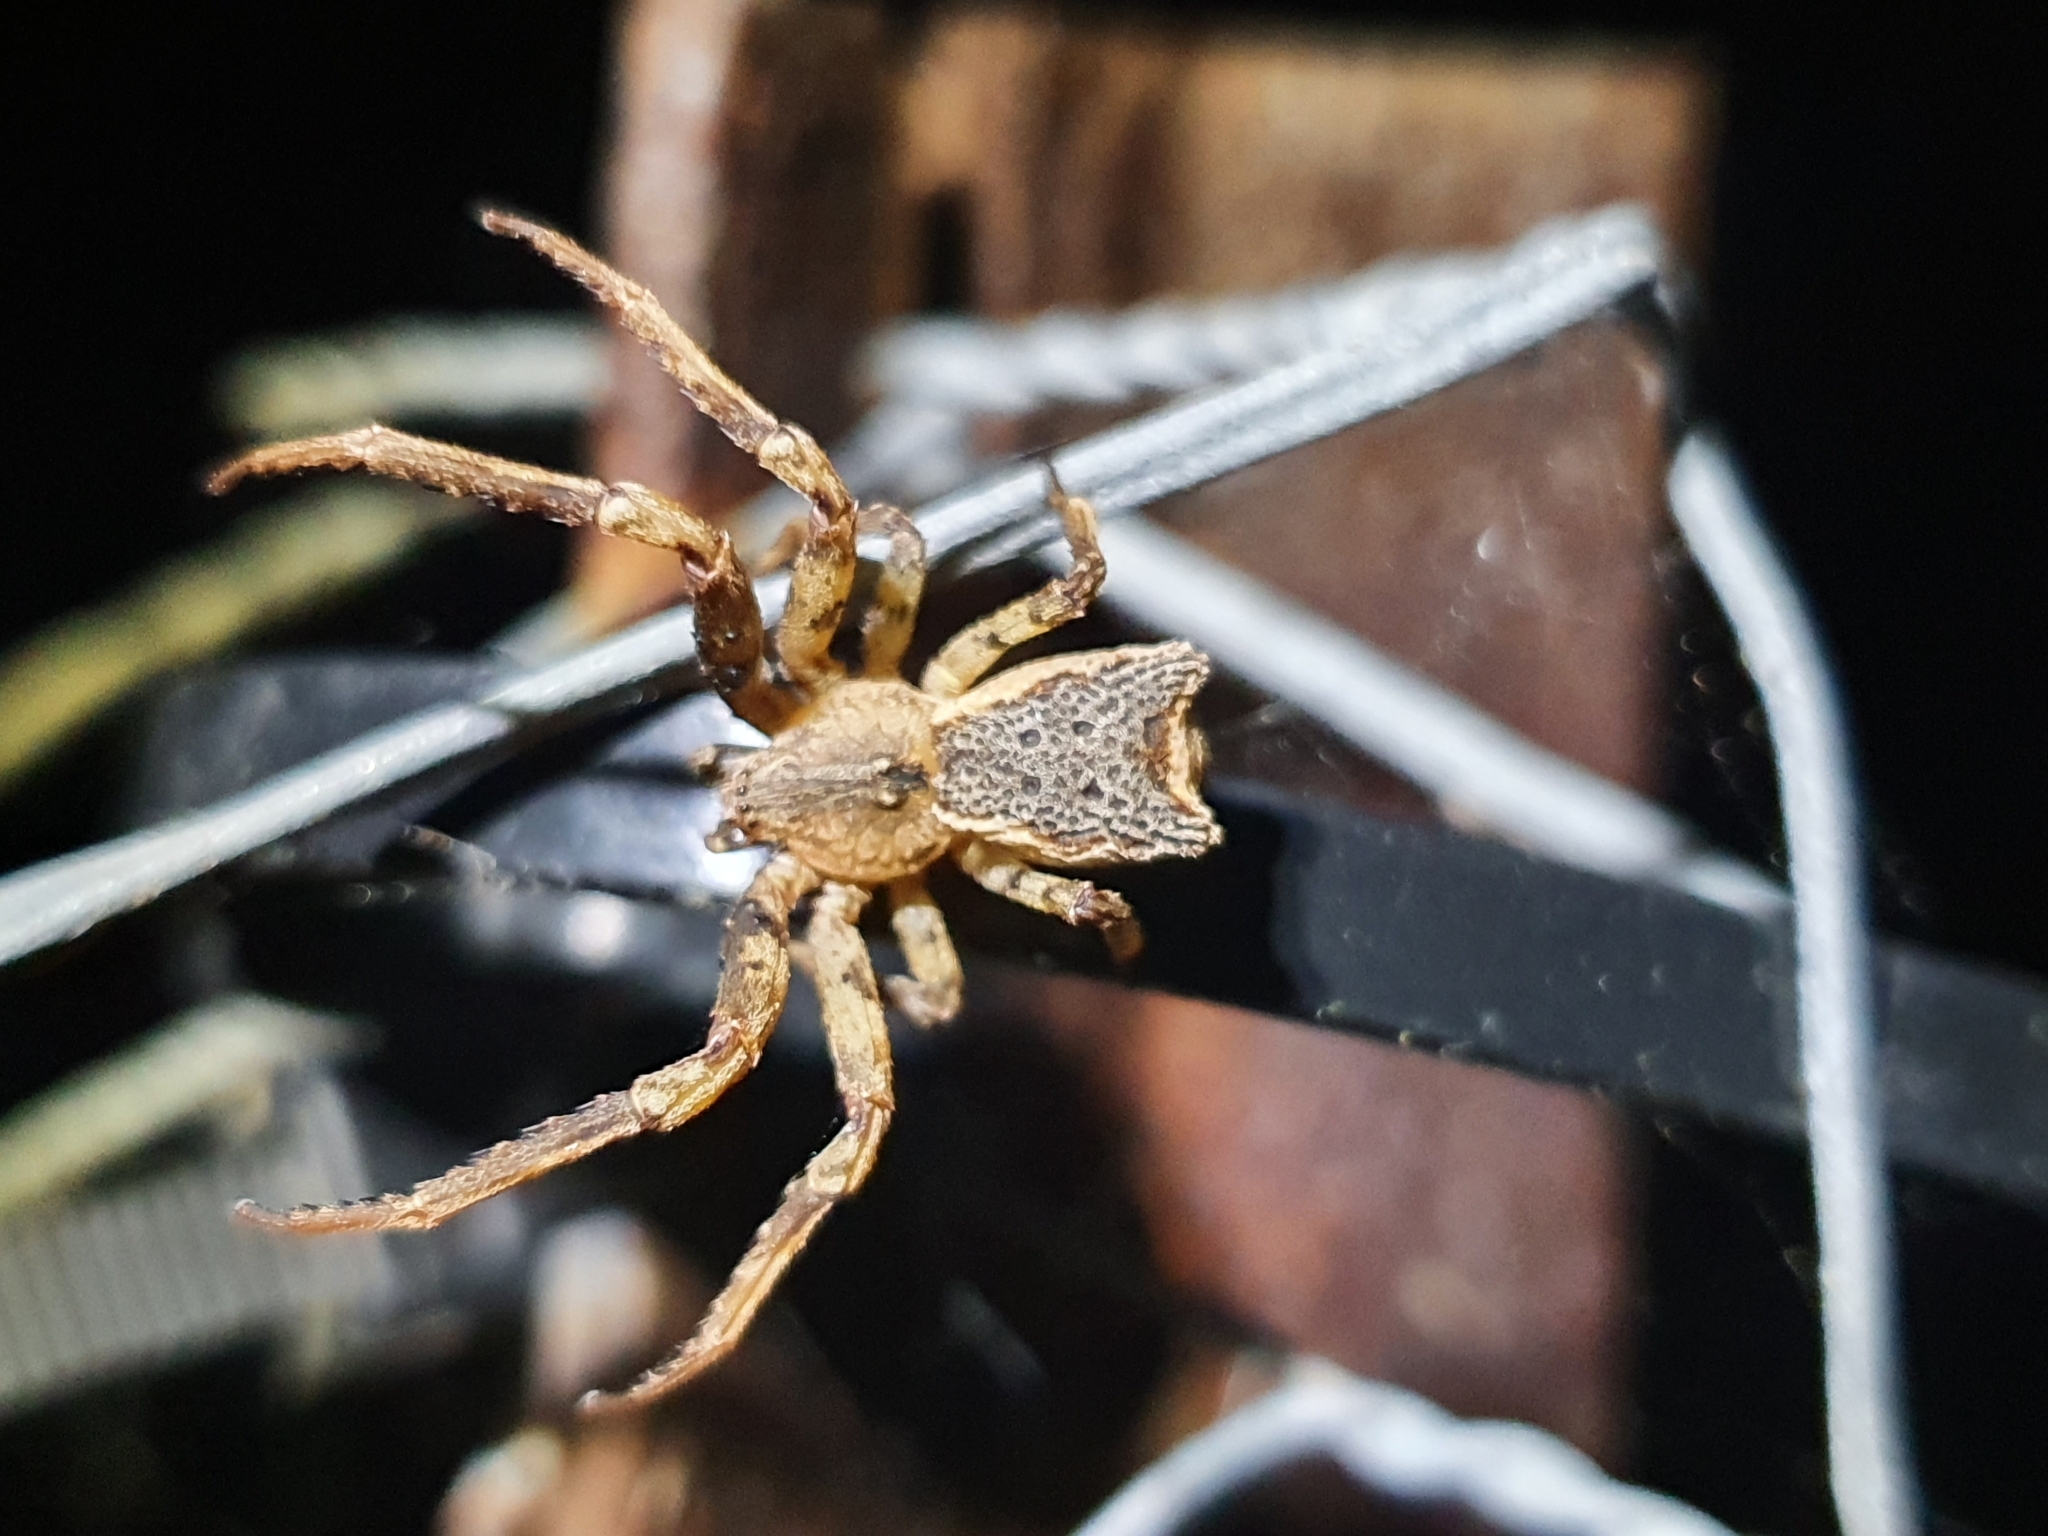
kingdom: Animalia
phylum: Arthropoda
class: Arachnida
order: Araneae
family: Thomisidae
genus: Sidymella
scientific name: Sidymella angularis
